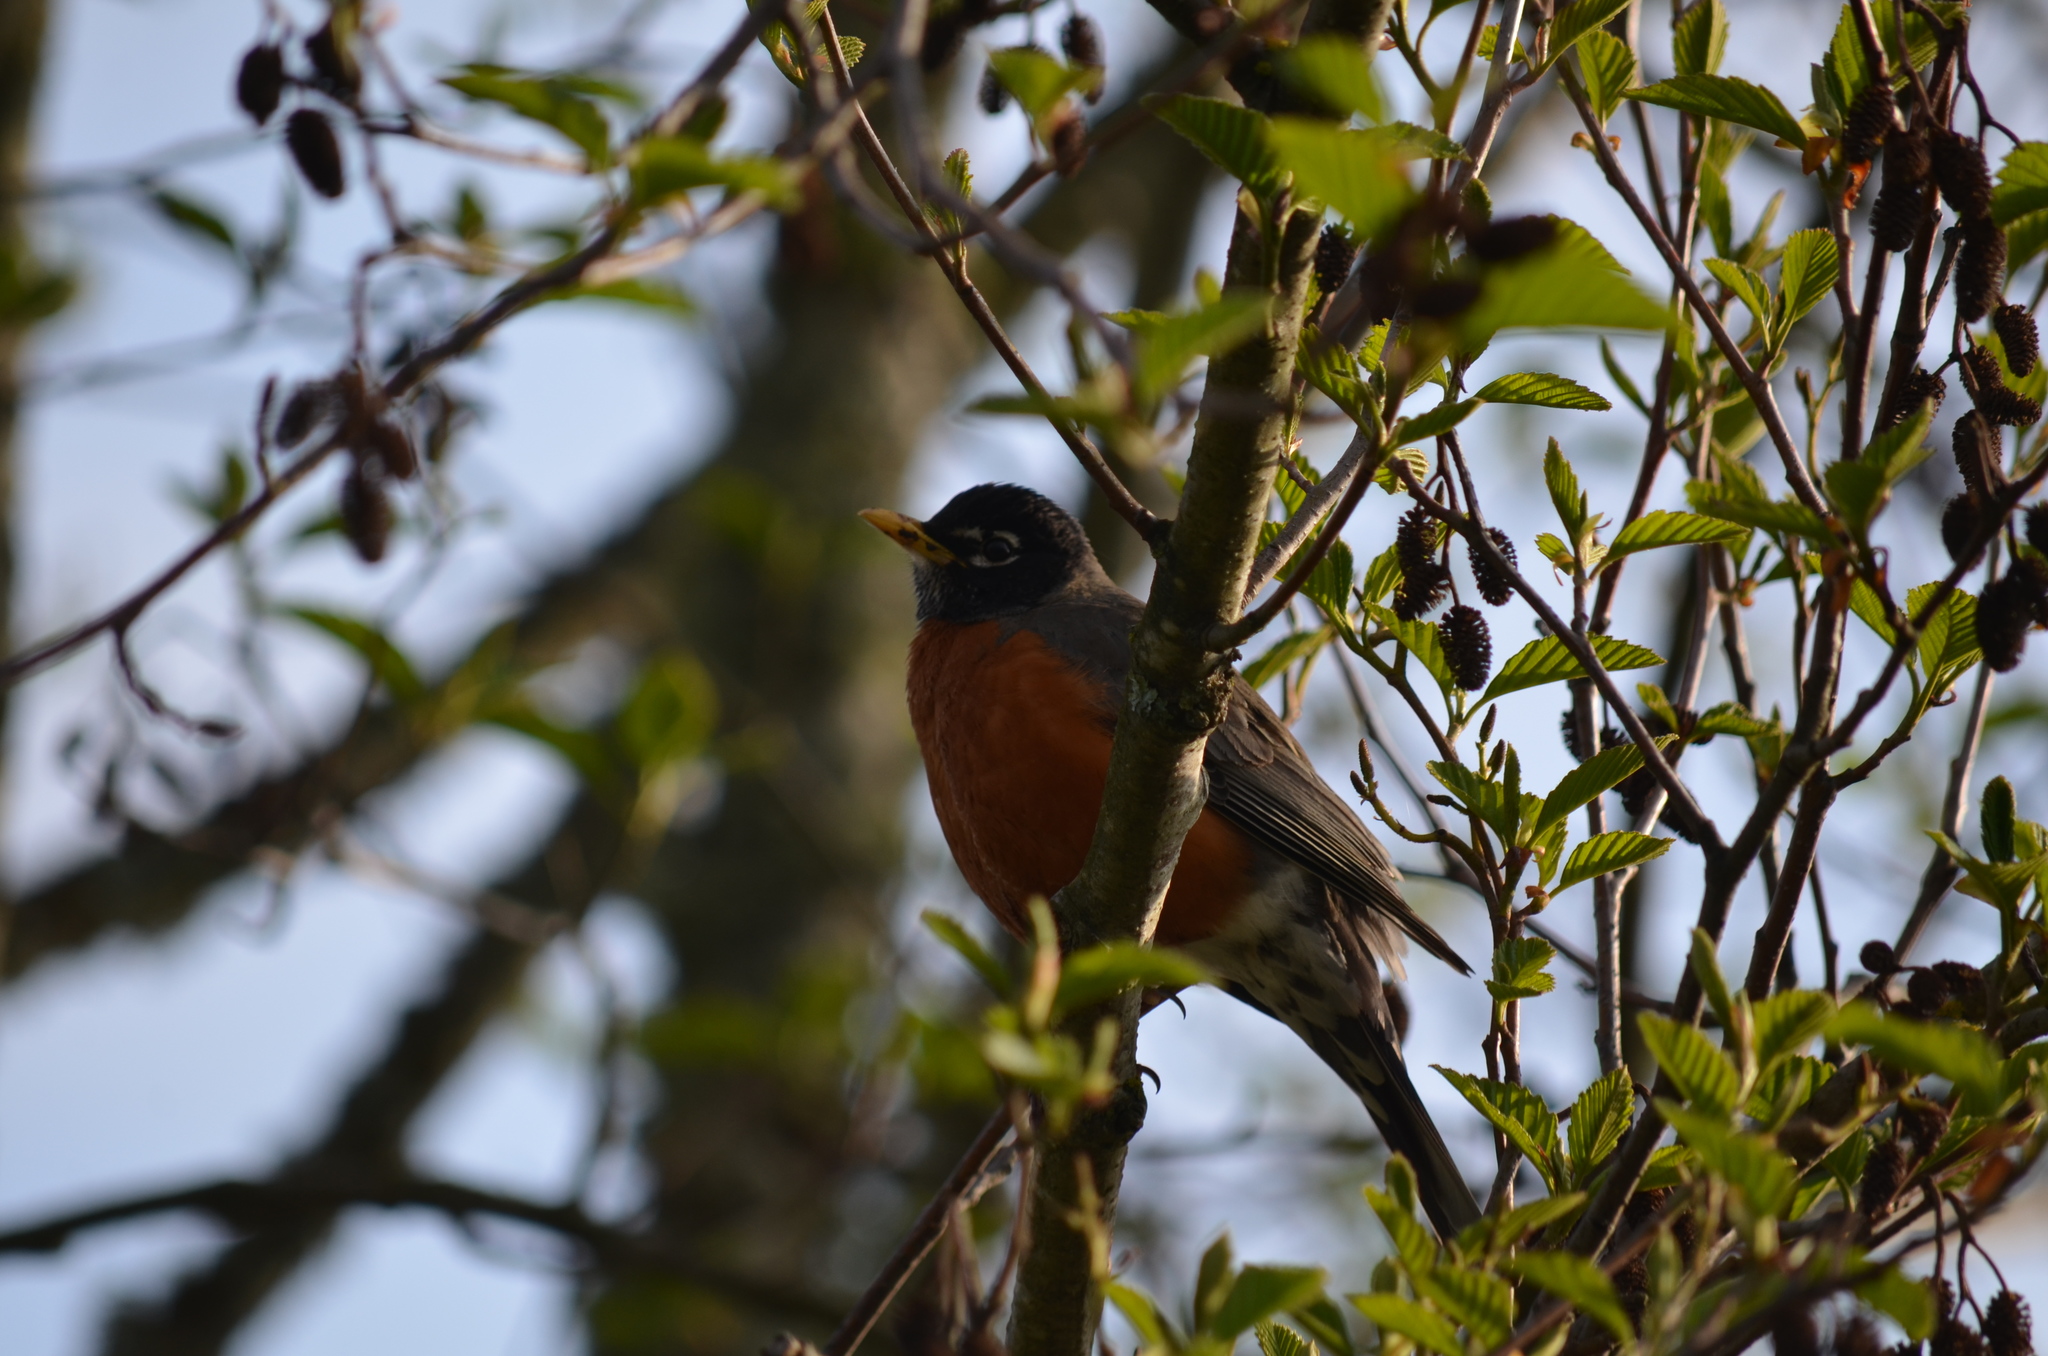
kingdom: Animalia
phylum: Chordata
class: Aves
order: Passeriformes
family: Turdidae
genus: Turdus
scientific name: Turdus migratorius
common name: American robin
